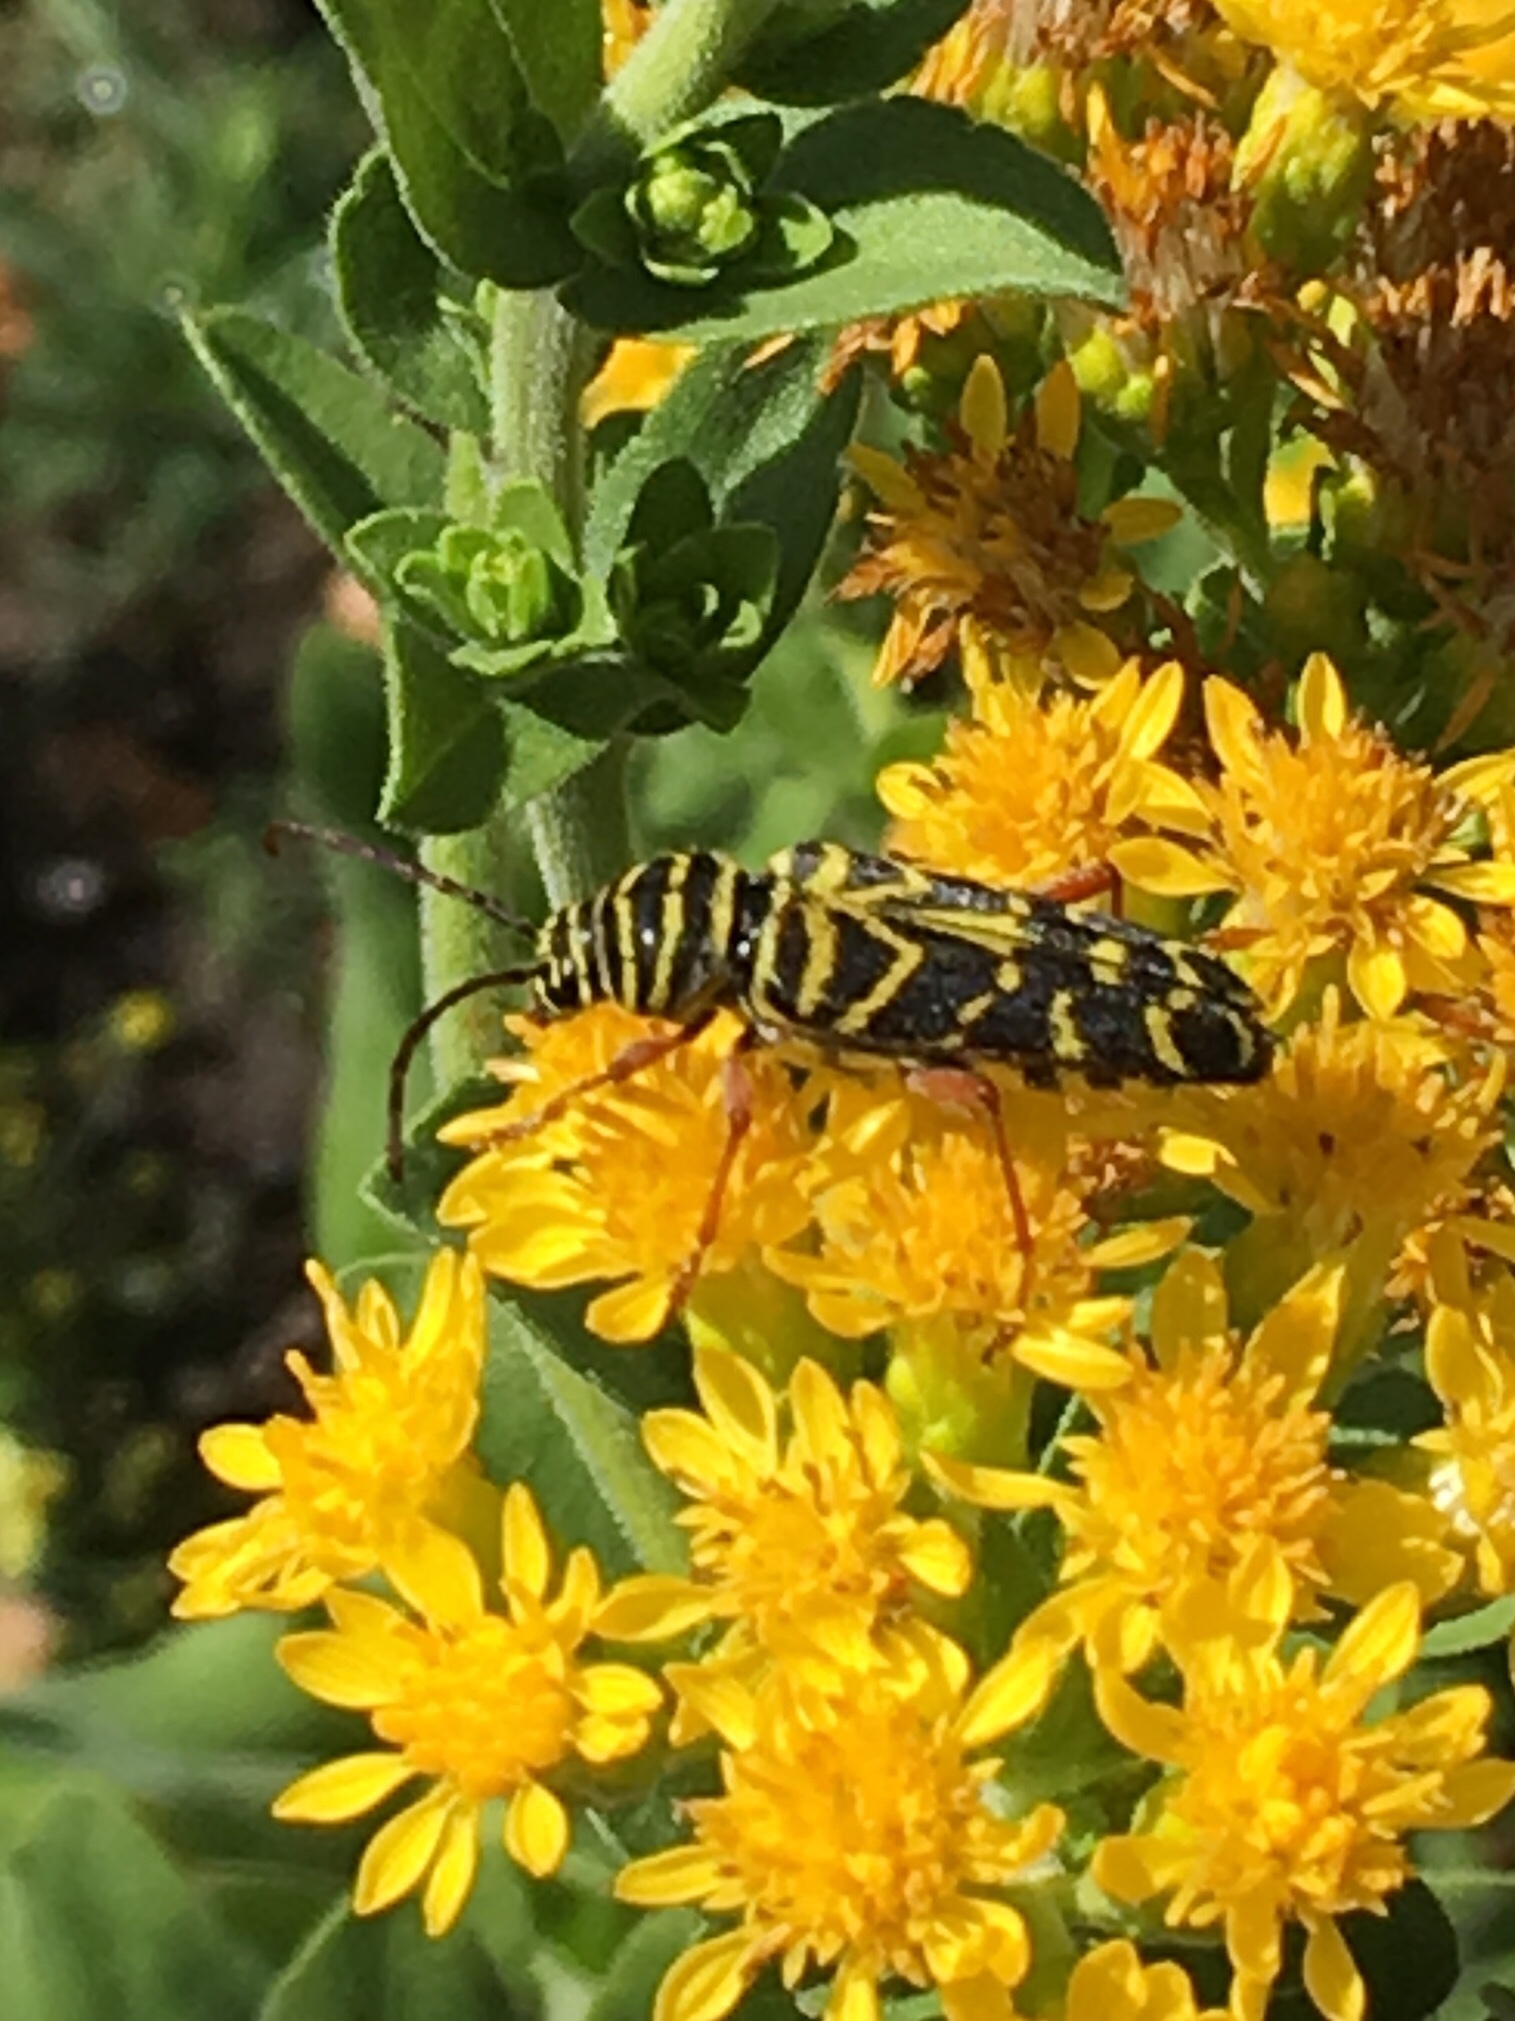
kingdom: Animalia
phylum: Arthropoda
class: Insecta
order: Coleoptera
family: Cerambycidae
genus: Megacyllene
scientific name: Megacyllene robiniae
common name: Locust borer
